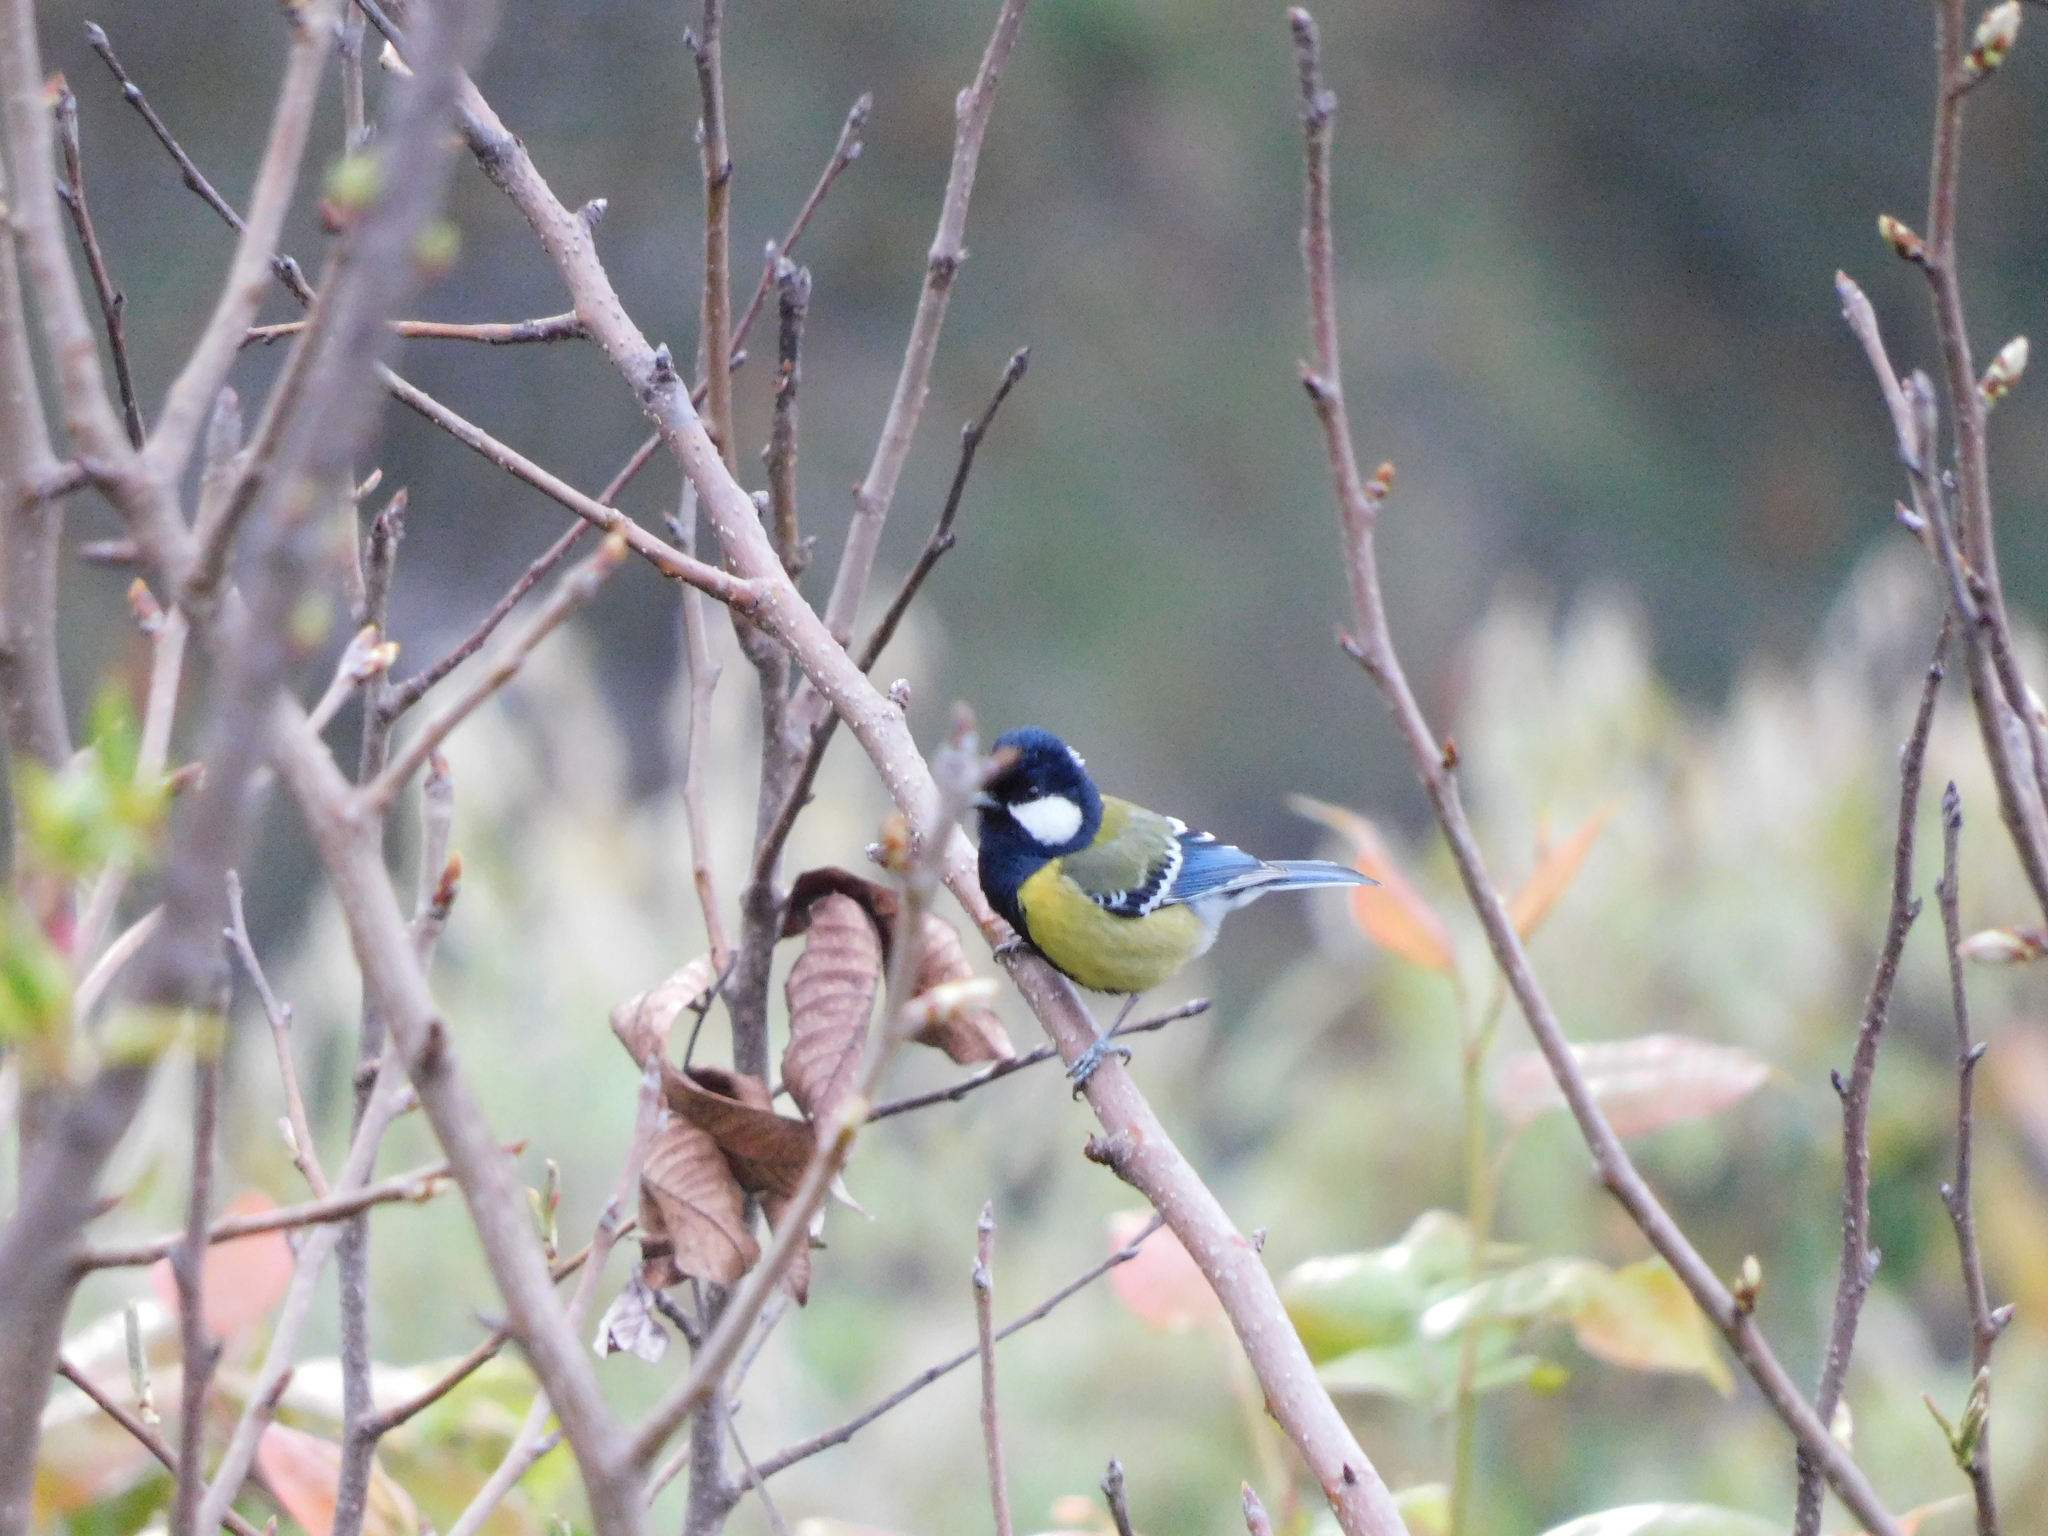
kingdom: Animalia
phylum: Chordata
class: Aves
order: Passeriformes
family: Paridae
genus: Parus
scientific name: Parus monticolus
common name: Green-backed tit
